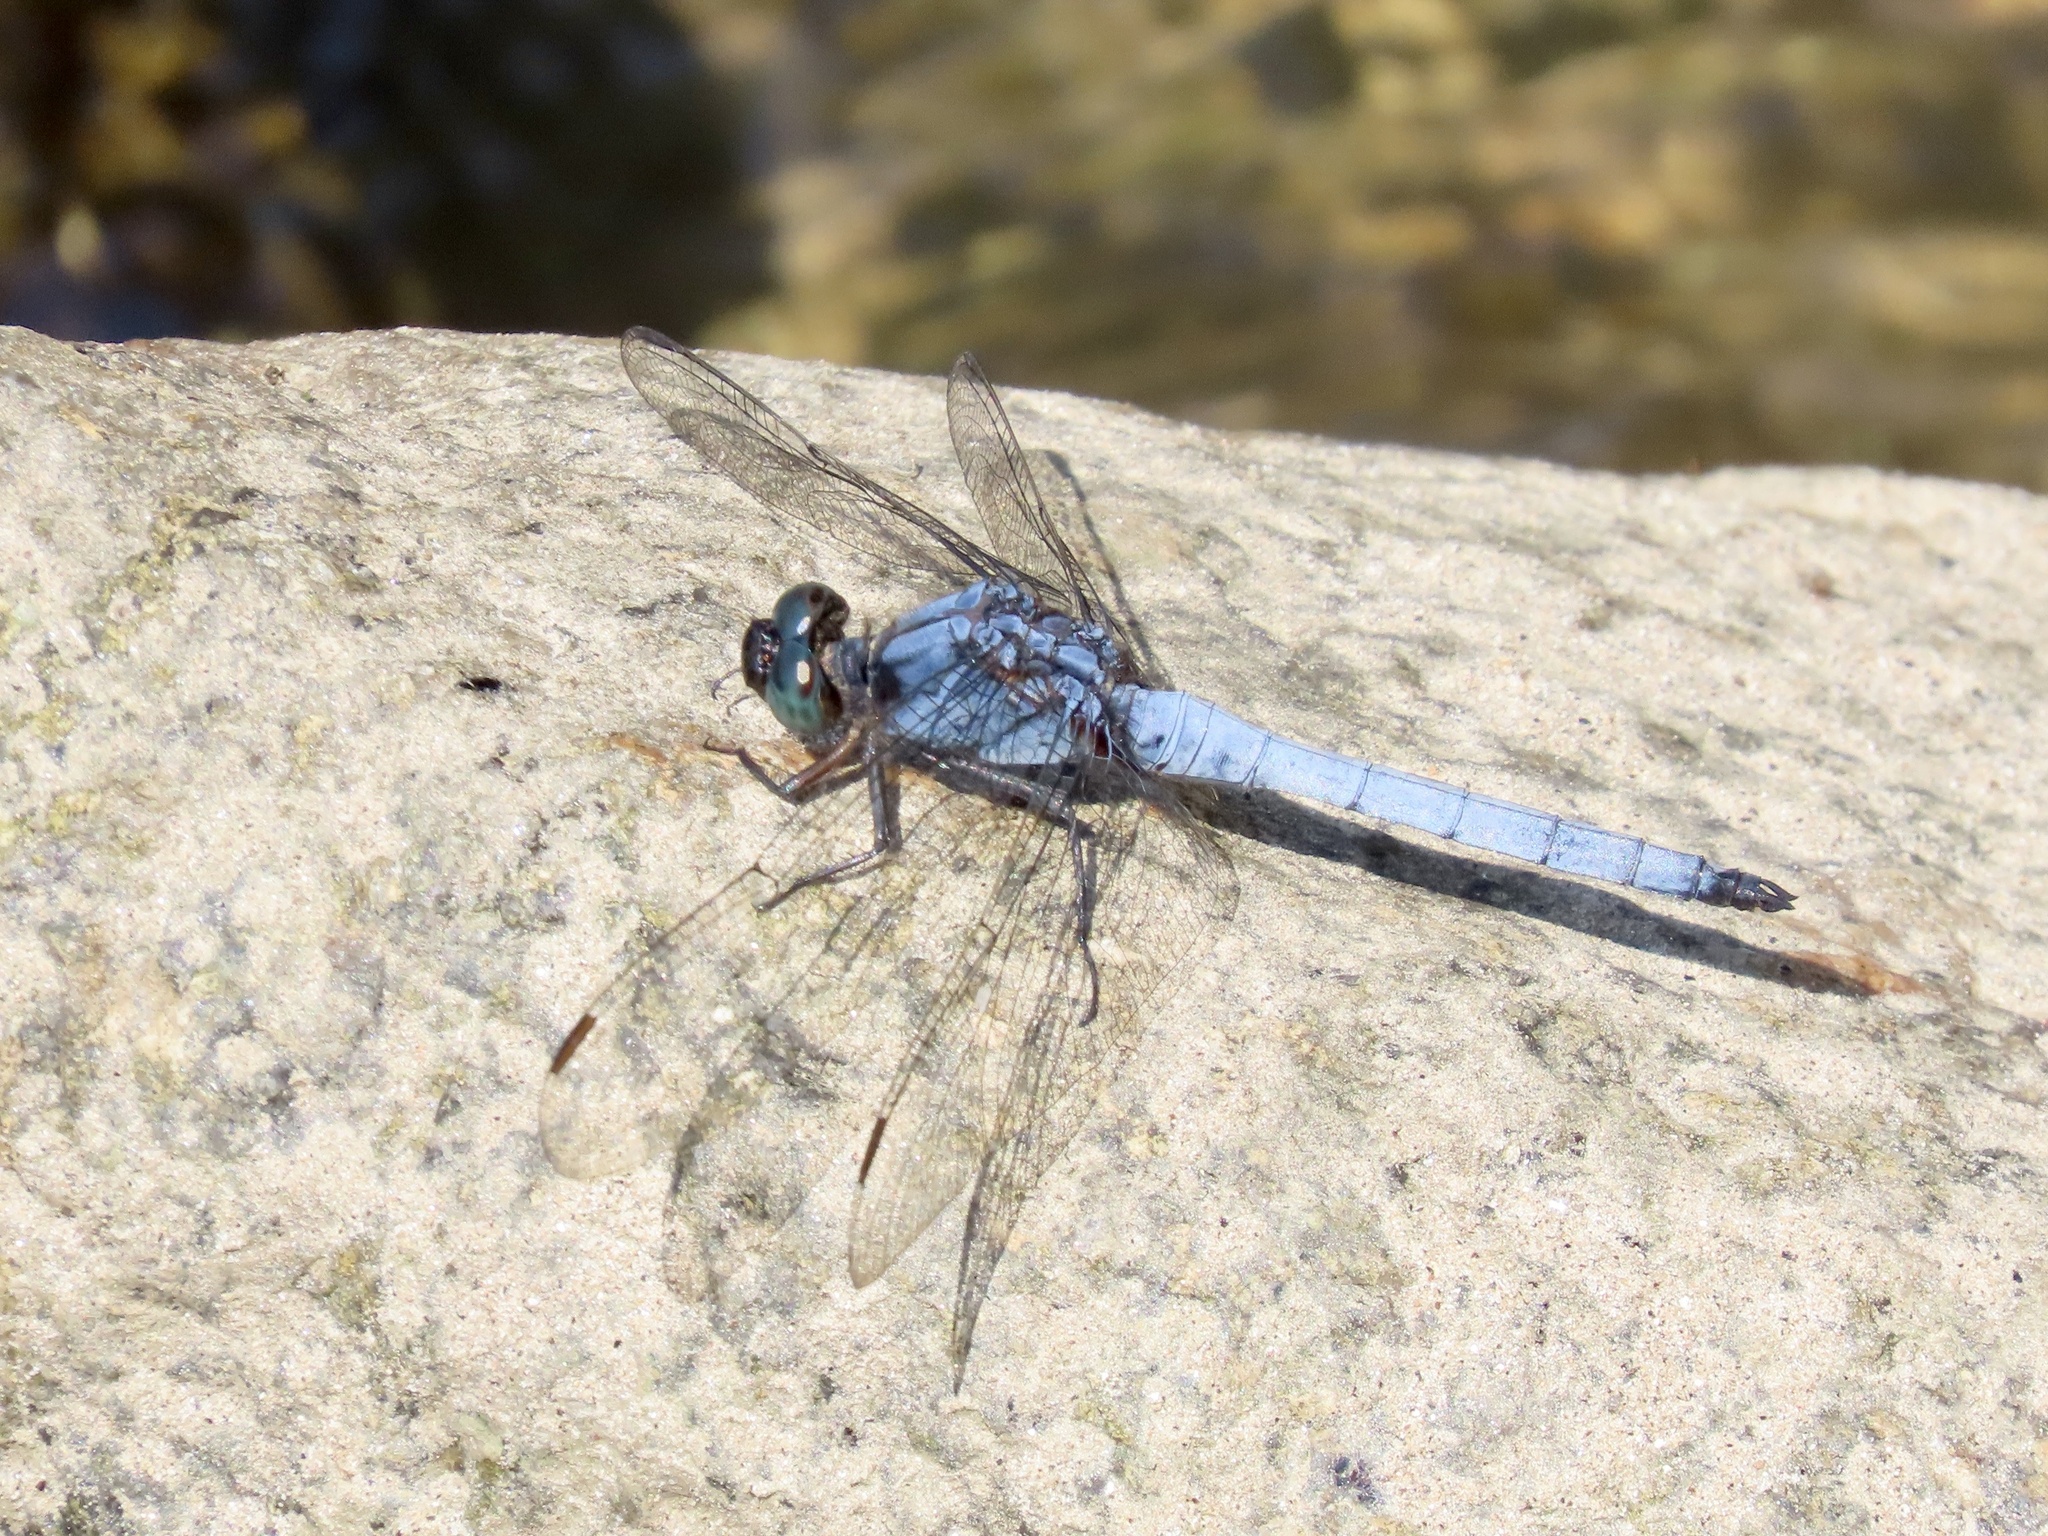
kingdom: Animalia
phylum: Arthropoda
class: Insecta
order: Odonata
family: Libellulidae
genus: Orthetrum
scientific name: Orthetrum glaucum
